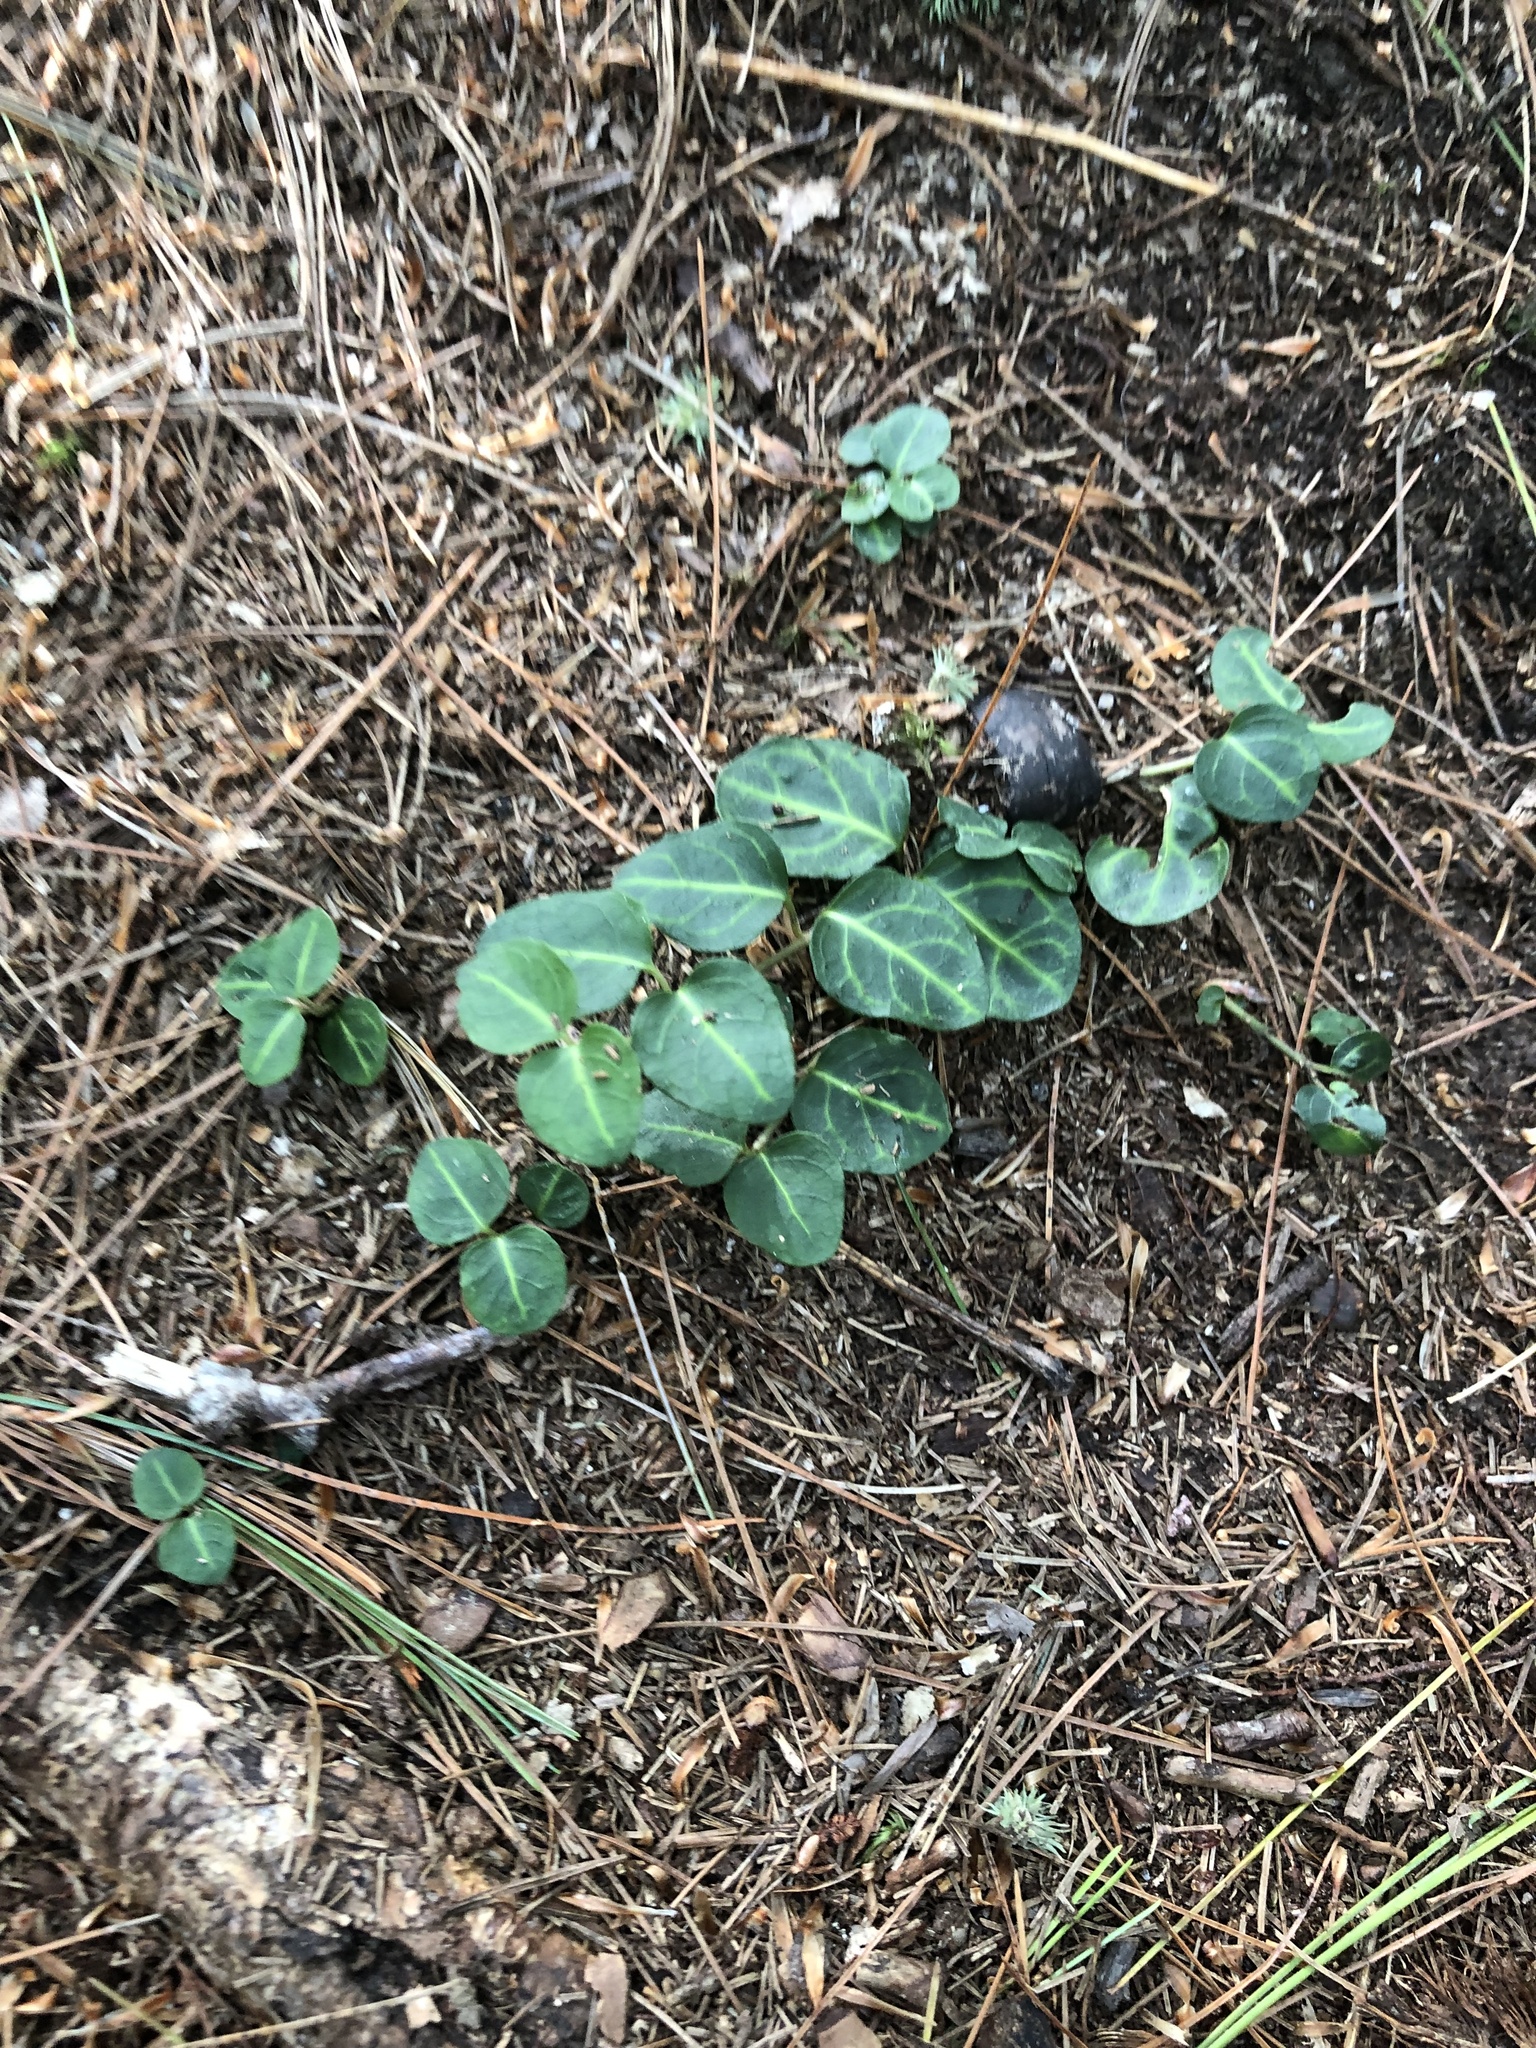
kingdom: Plantae
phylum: Tracheophyta
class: Magnoliopsida
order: Gentianales
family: Rubiaceae
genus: Mitchella
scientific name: Mitchella repens
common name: Partridge-berry
